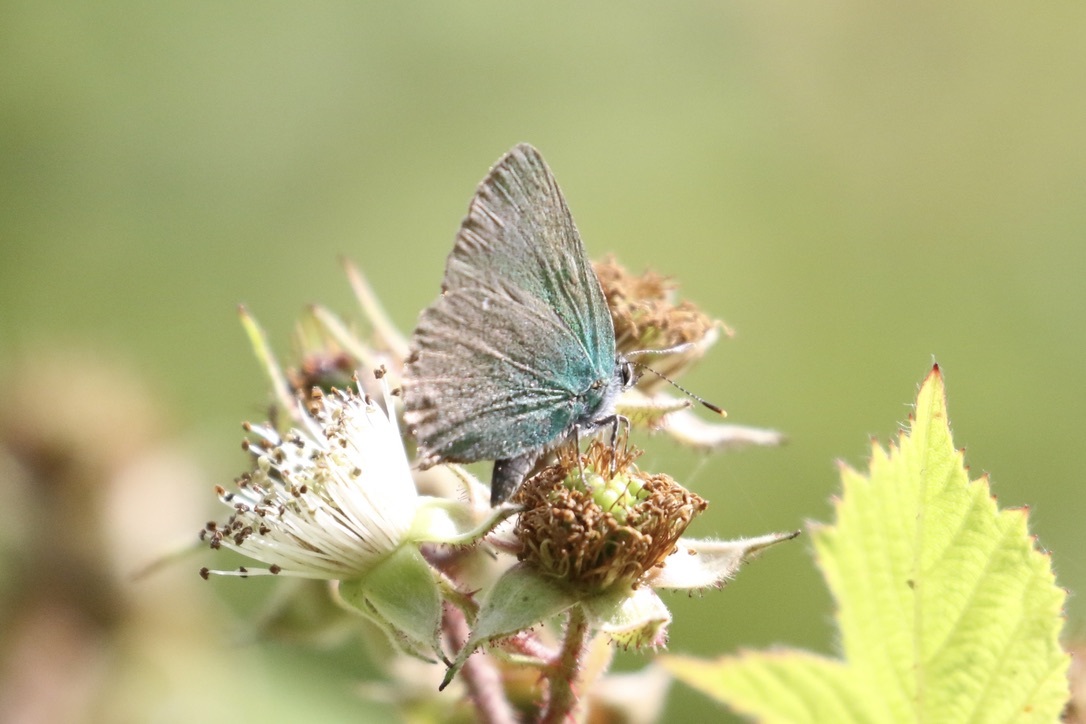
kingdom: Animalia
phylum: Arthropoda
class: Insecta
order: Lepidoptera
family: Lycaenidae
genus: Callophrys
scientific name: Callophrys rubi
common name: Green hairstreak
